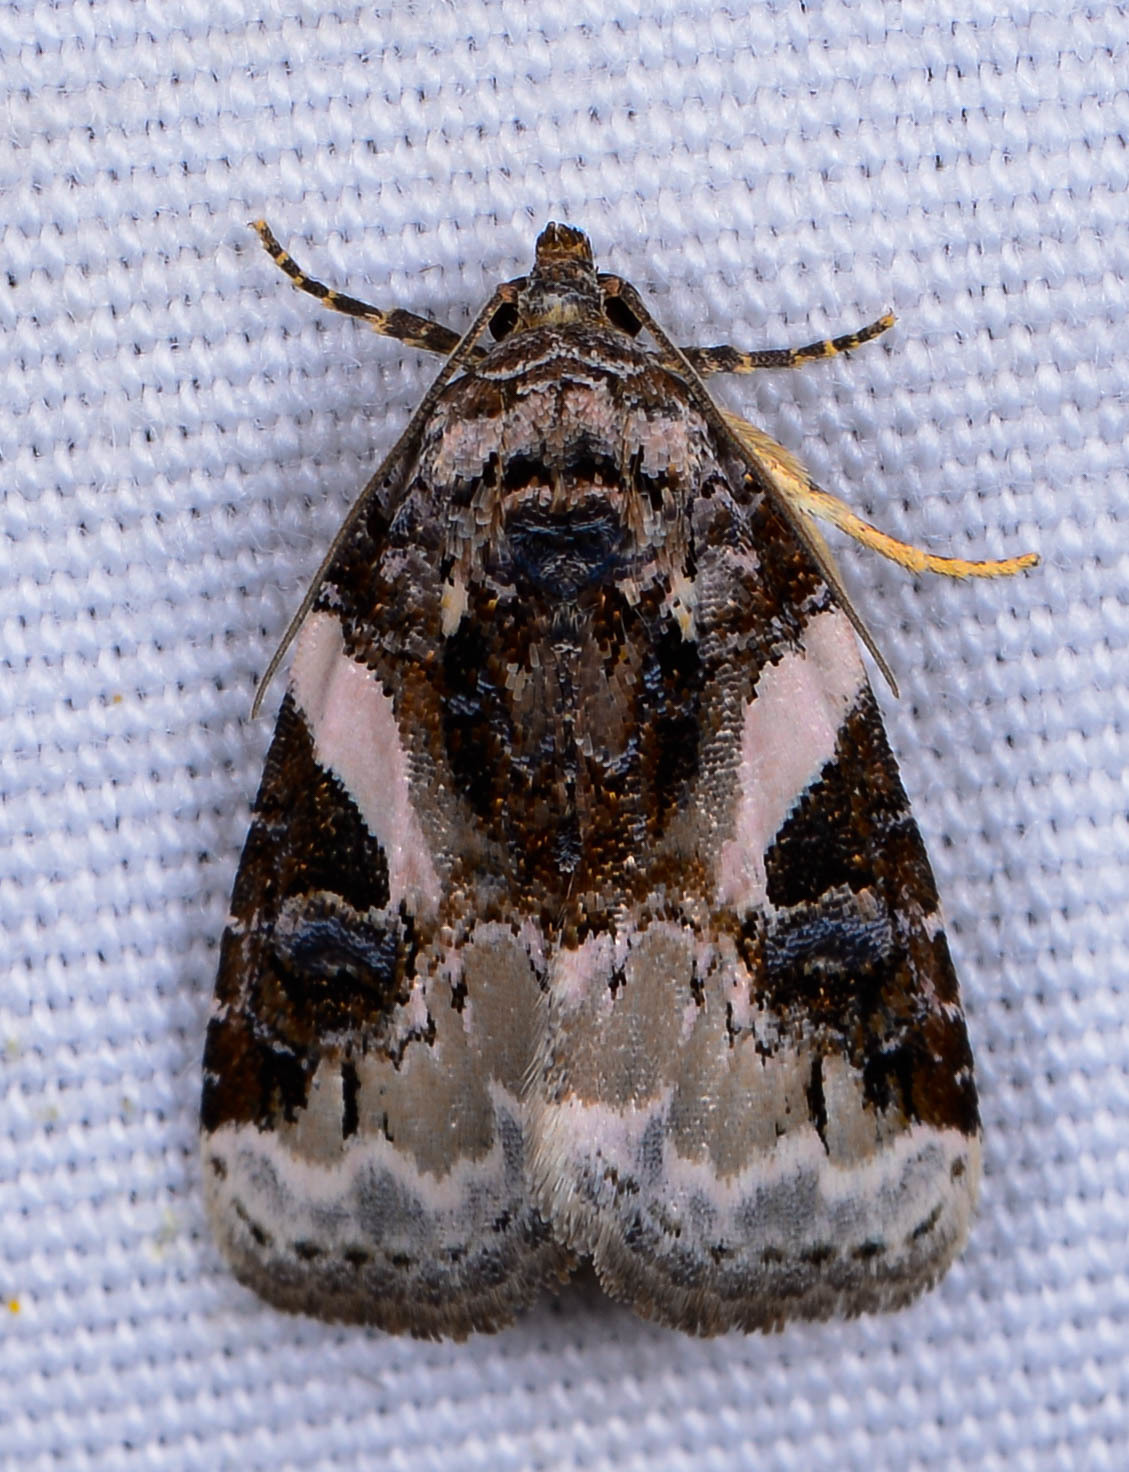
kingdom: Animalia
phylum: Arthropoda
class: Insecta
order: Lepidoptera
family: Noctuidae
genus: Pseudeustrotia
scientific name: Pseudeustrotia carneola
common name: Pink-barred lithacodia moth
